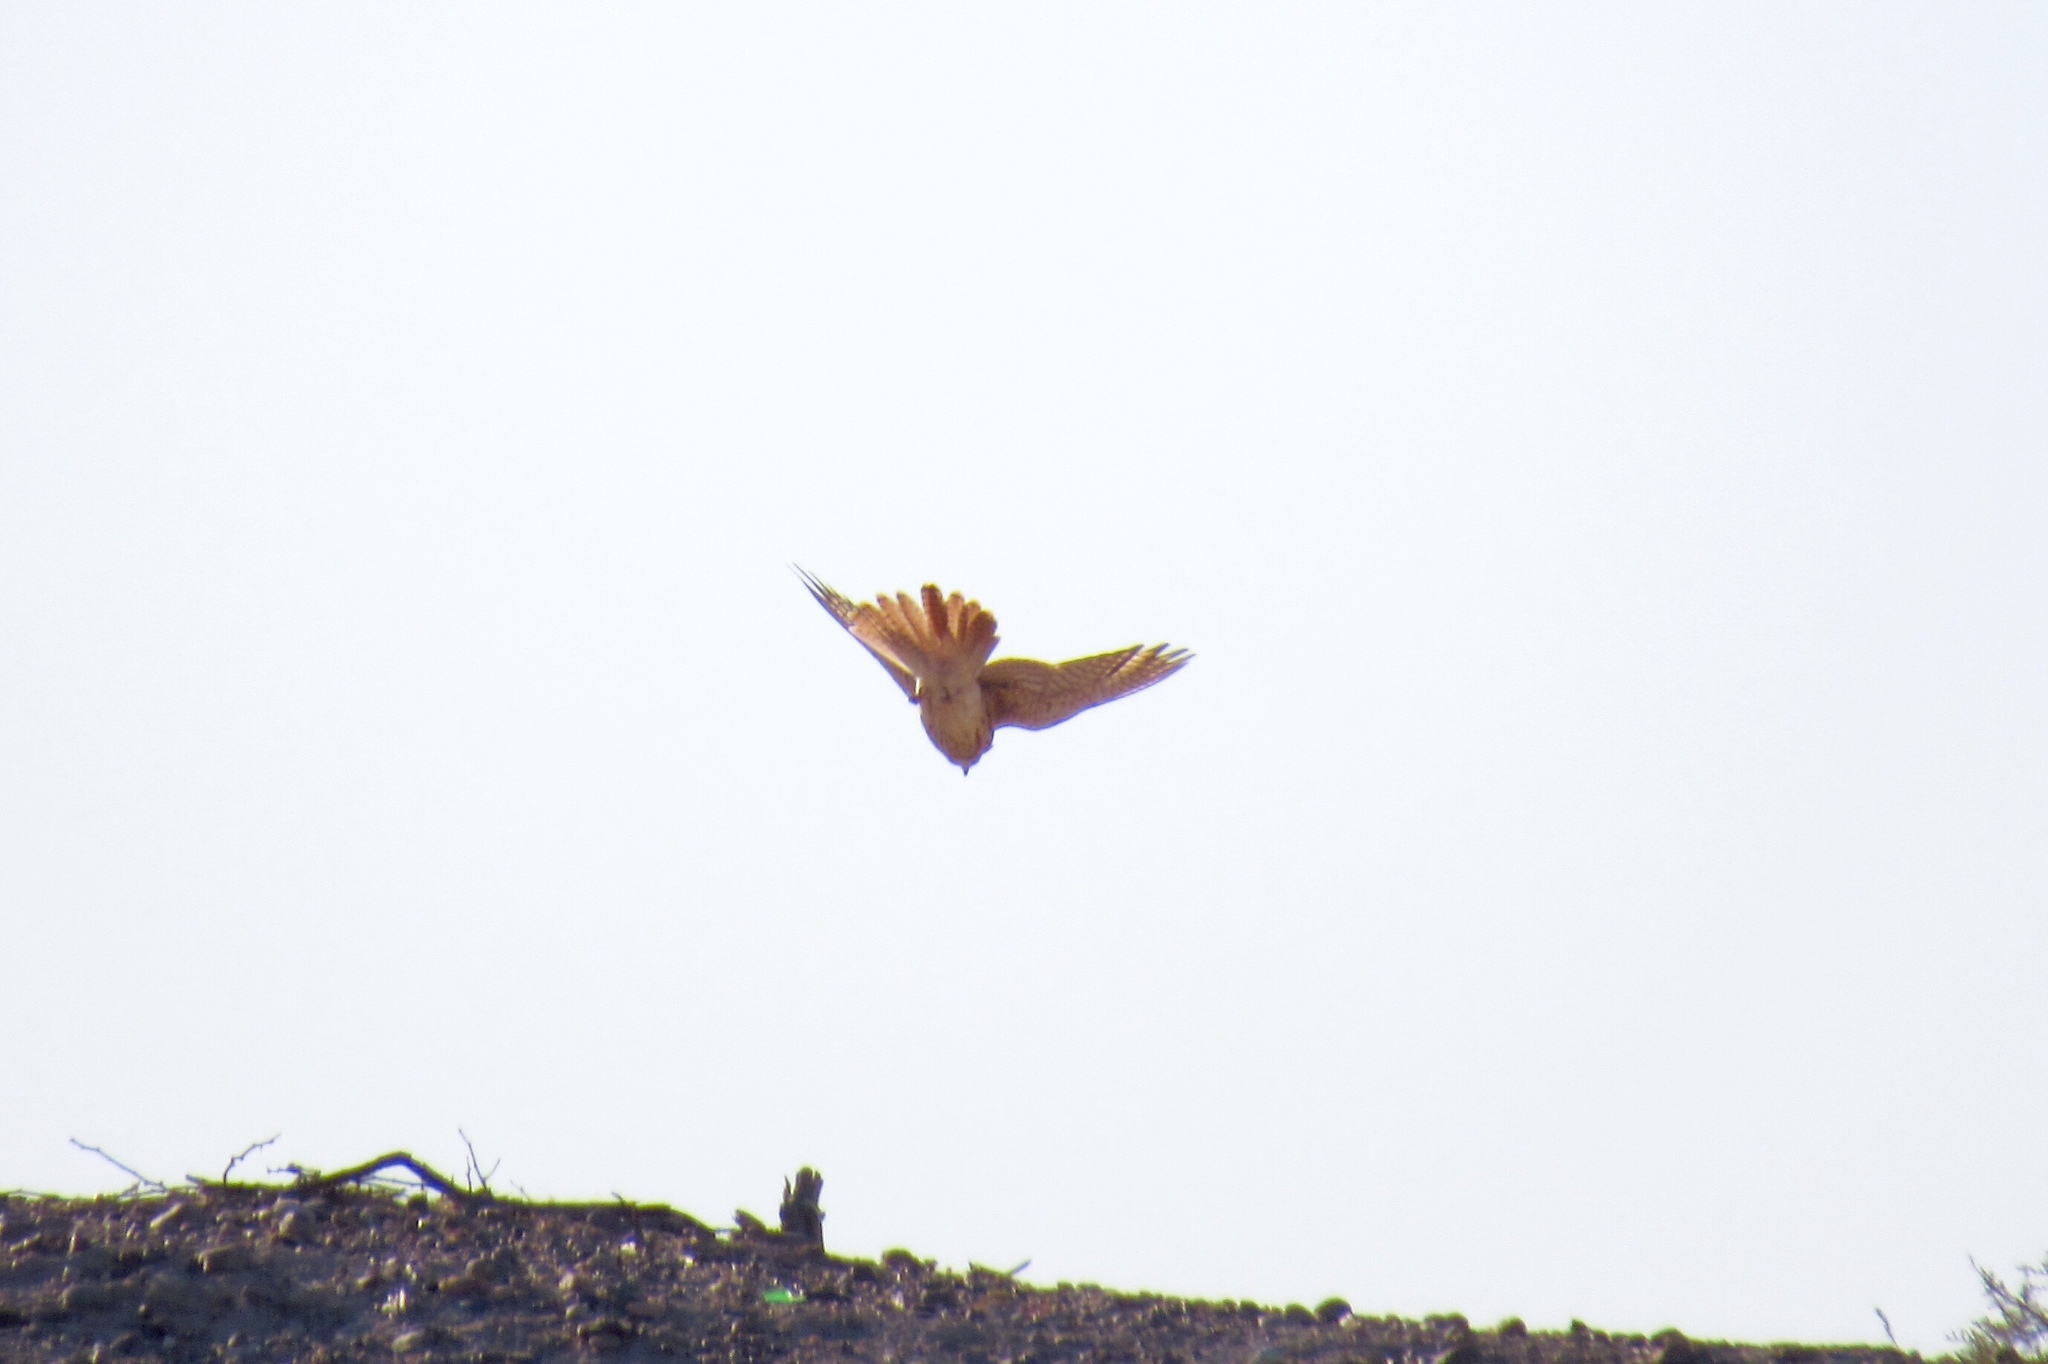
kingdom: Animalia
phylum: Chordata
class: Aves
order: Falconiformes
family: Falconidae
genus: Falco
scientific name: Falco sparverius
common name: American kestrel
